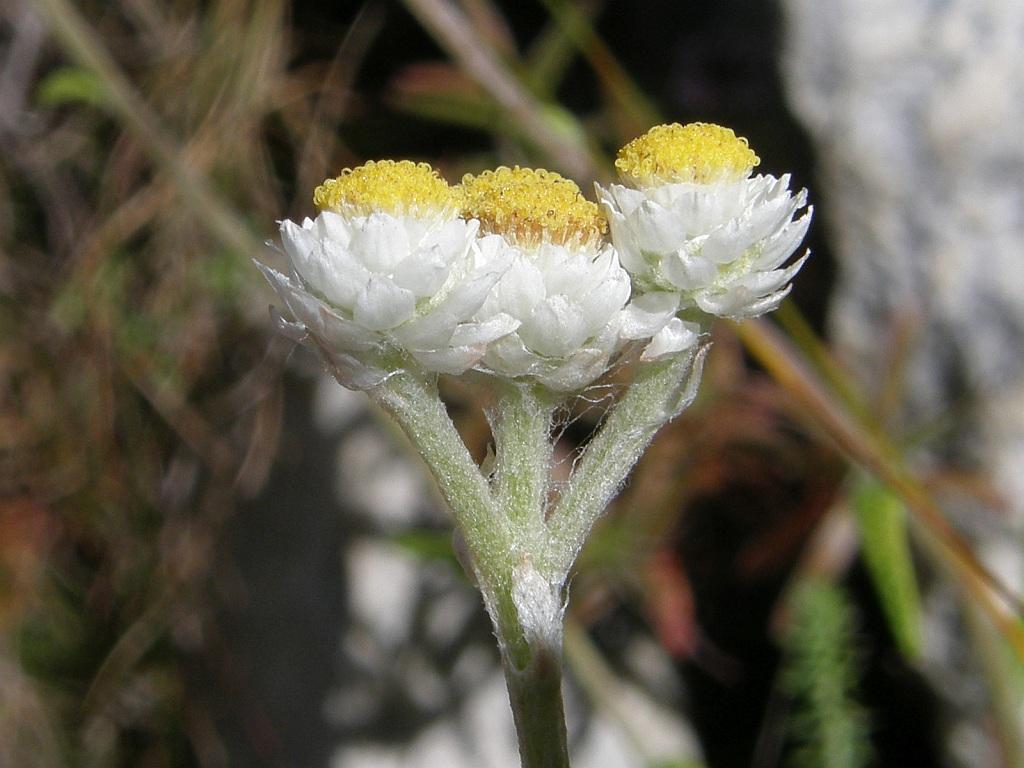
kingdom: Plantae
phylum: Tracheophyta
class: Magnoliopsida
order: Asterales
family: Asteraceae
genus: Helichrysum
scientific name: Helichrysum felinum
